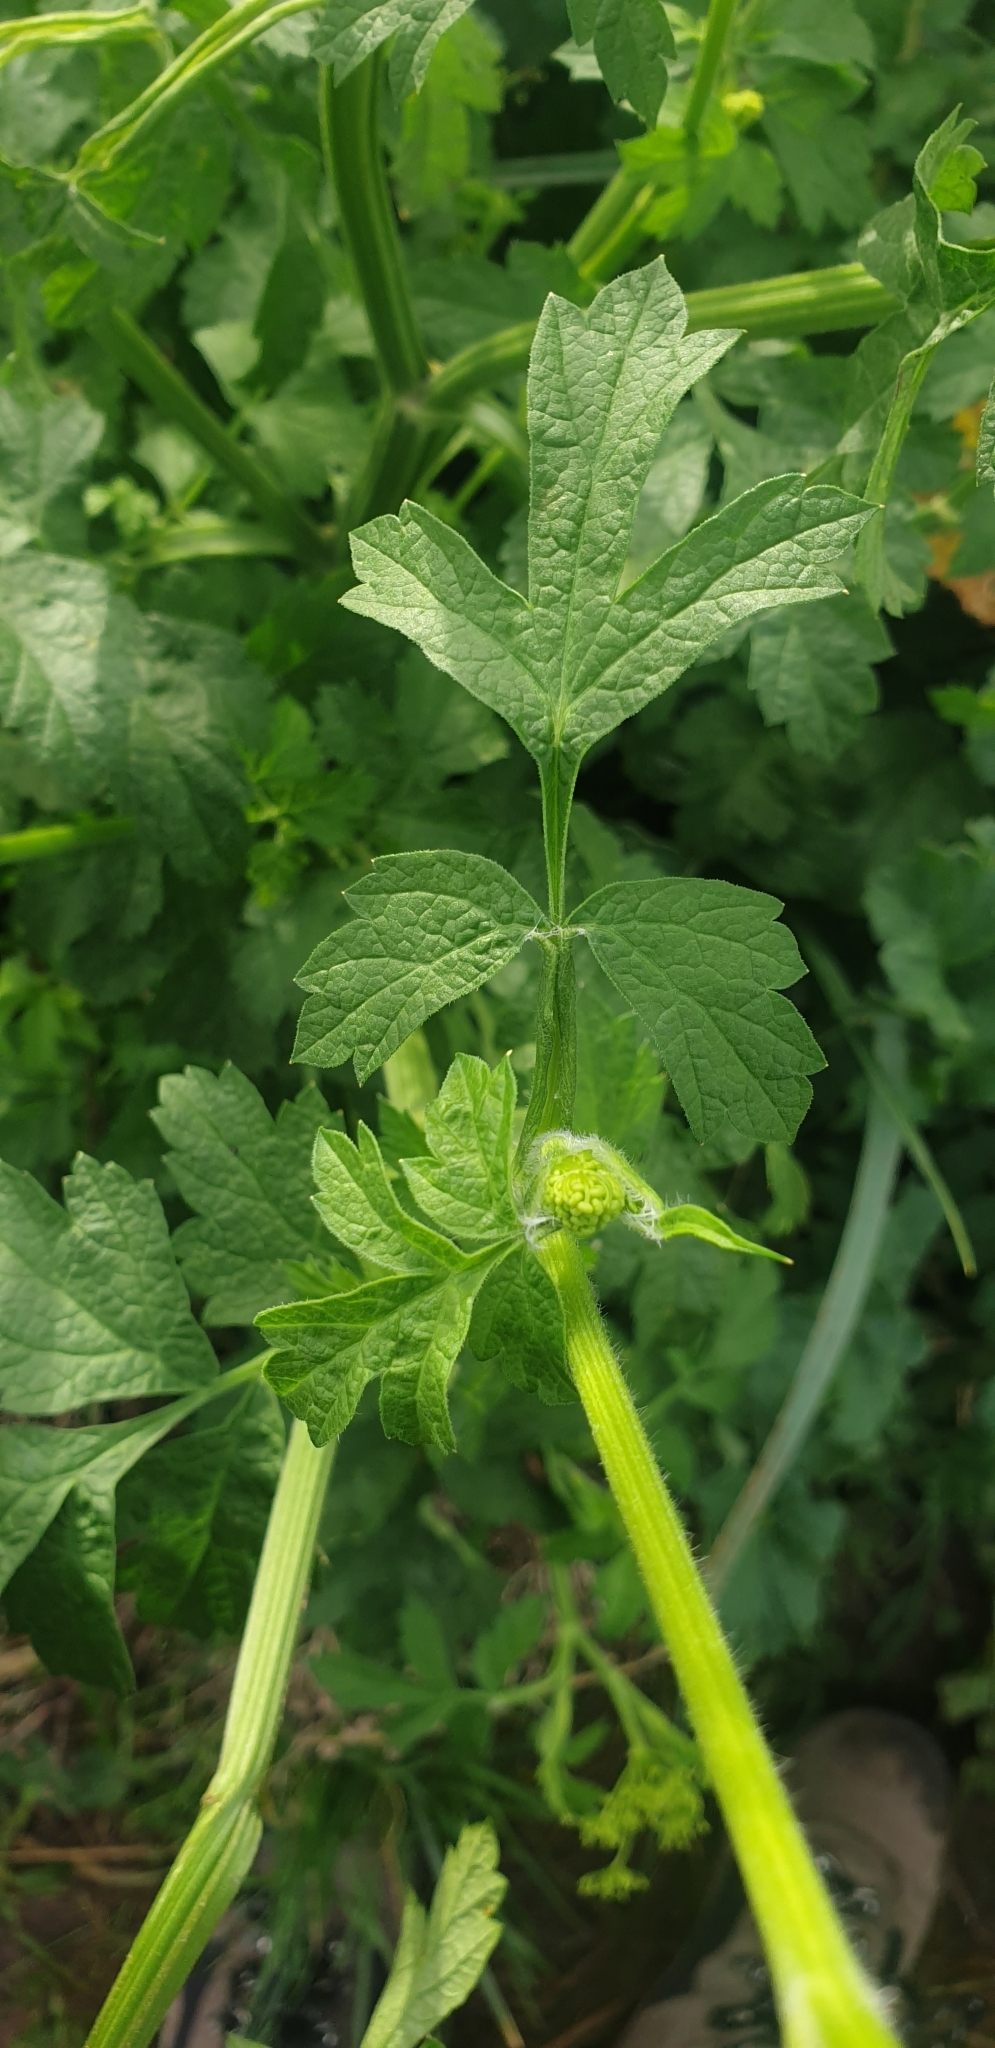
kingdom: Plantae
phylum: Tracheophyta
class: Magnoliopsida
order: Apiales
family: Apiaceae
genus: Pastinaca
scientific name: Pastinaca sativa
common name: Wild parsnip
